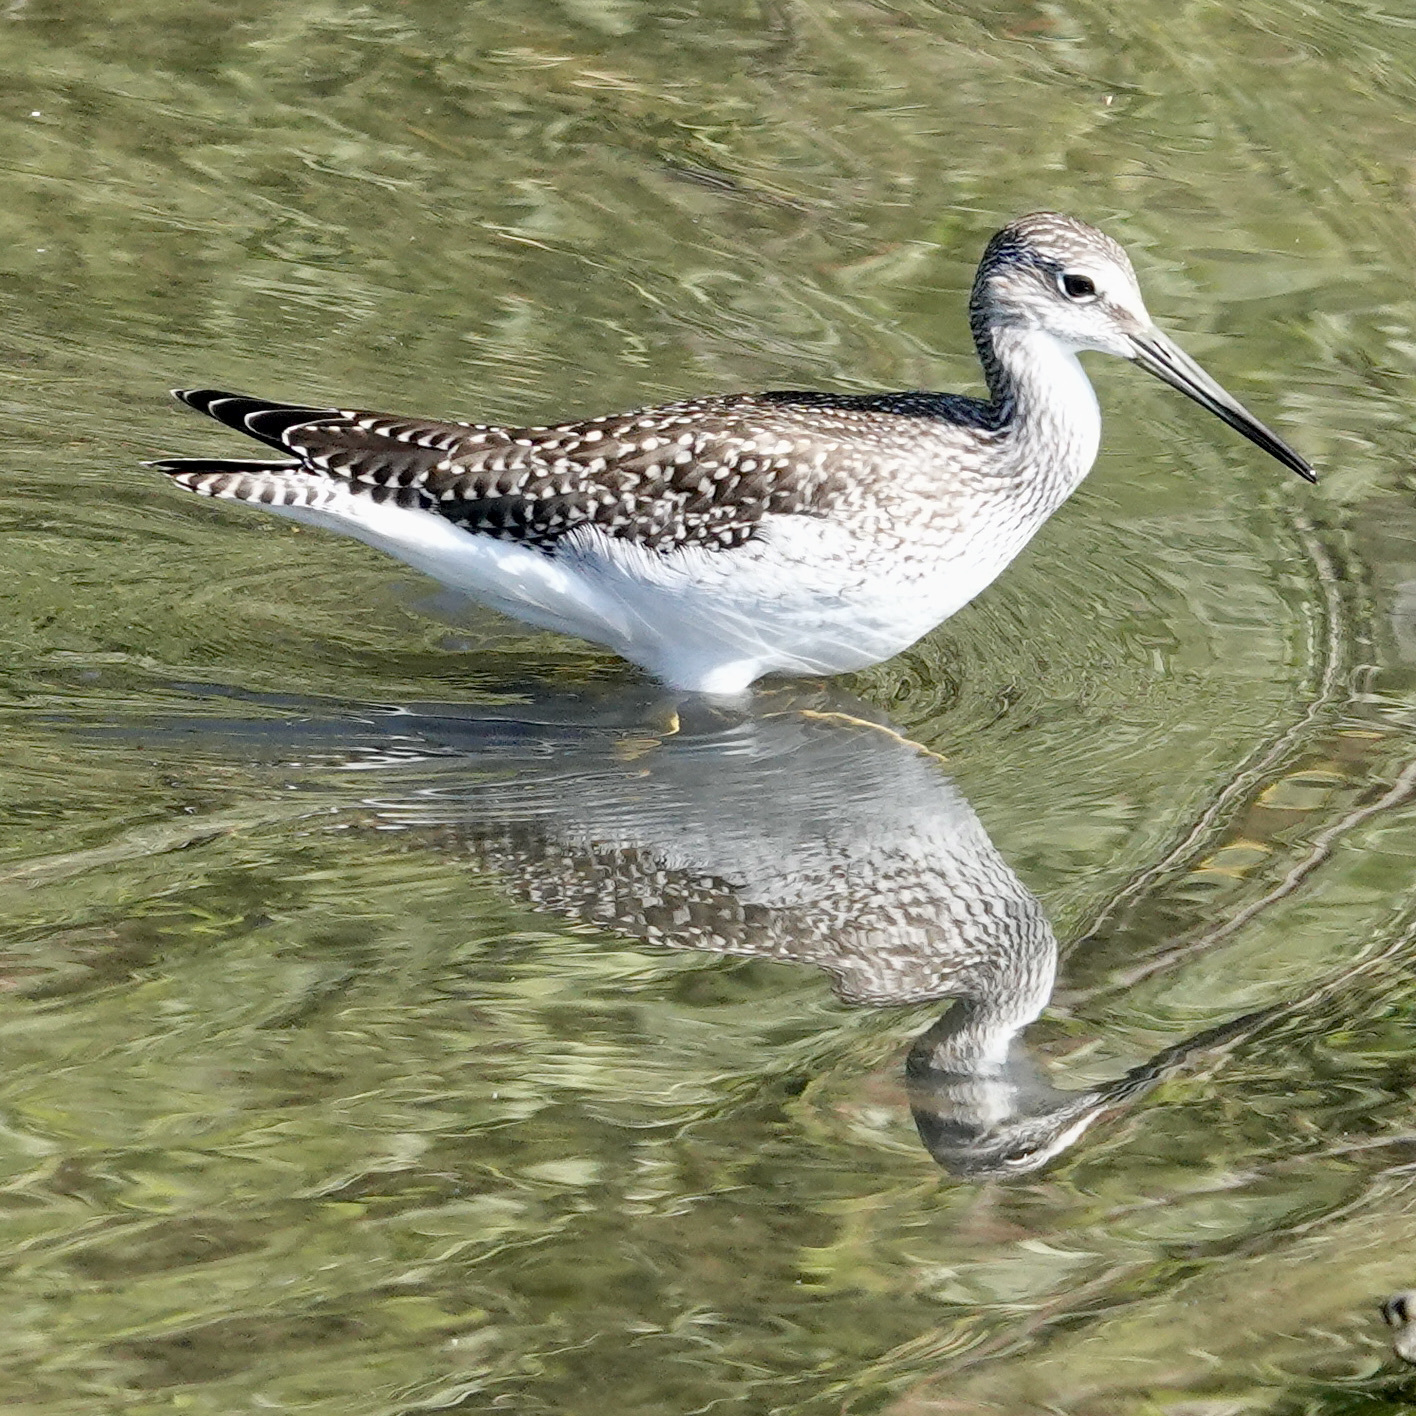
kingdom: Animalia
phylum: Chordata
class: Aves
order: Charadriiformes
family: Scolopacidae
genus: Tringa
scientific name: Tringa melanoleuca
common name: Greater yellowlegs
